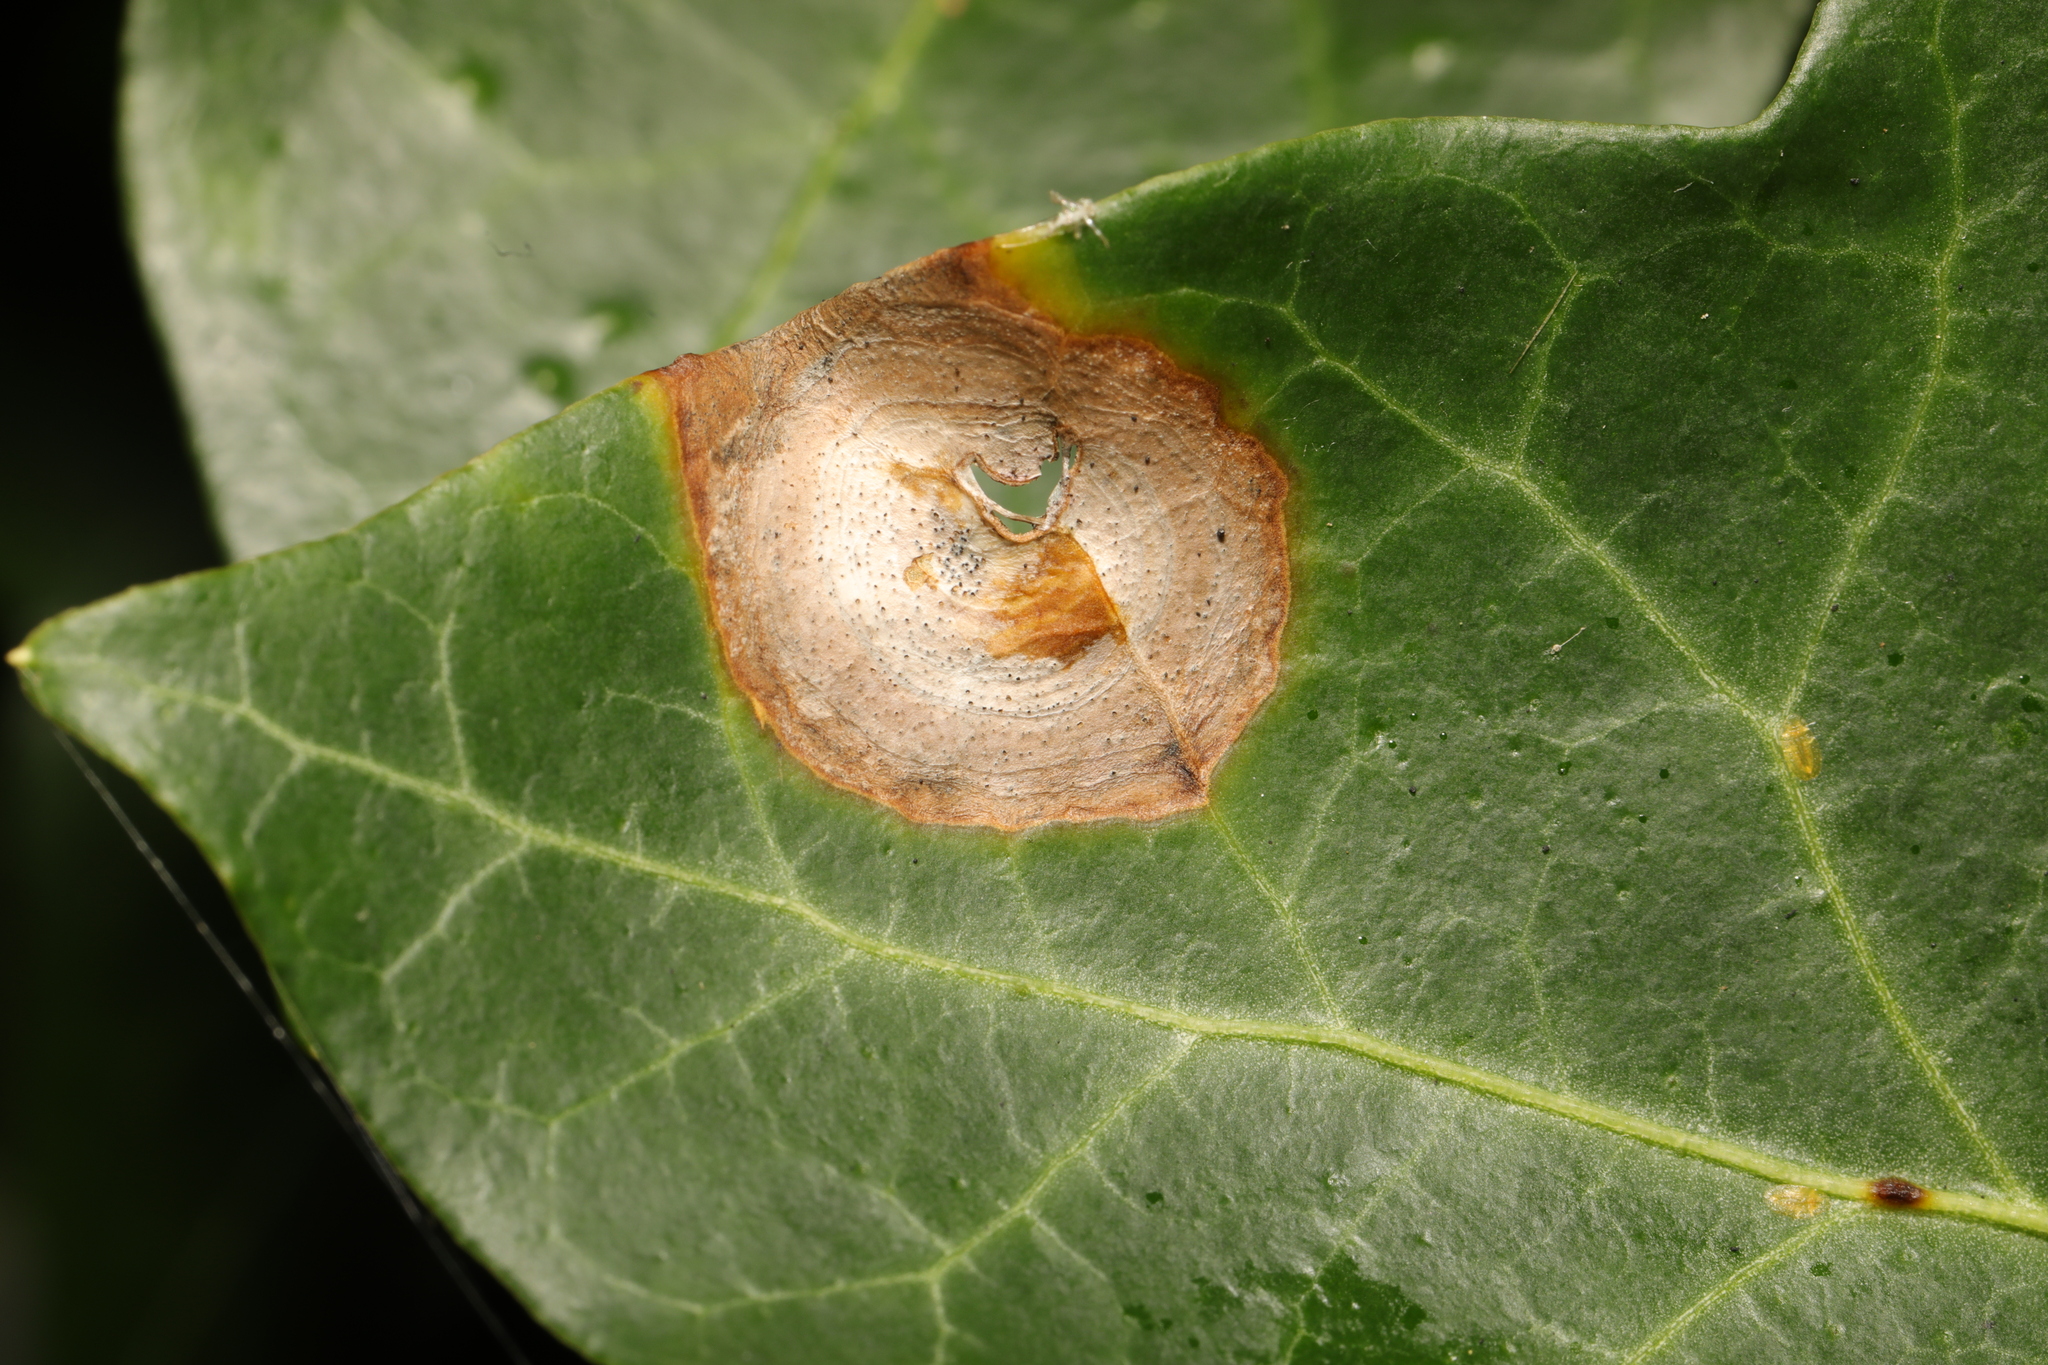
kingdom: Fungi
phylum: Ascomycota
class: Dothideomycetes
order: Pleosporales
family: Didymellaceae
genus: Boeremia
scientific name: Boeremia hedericola
